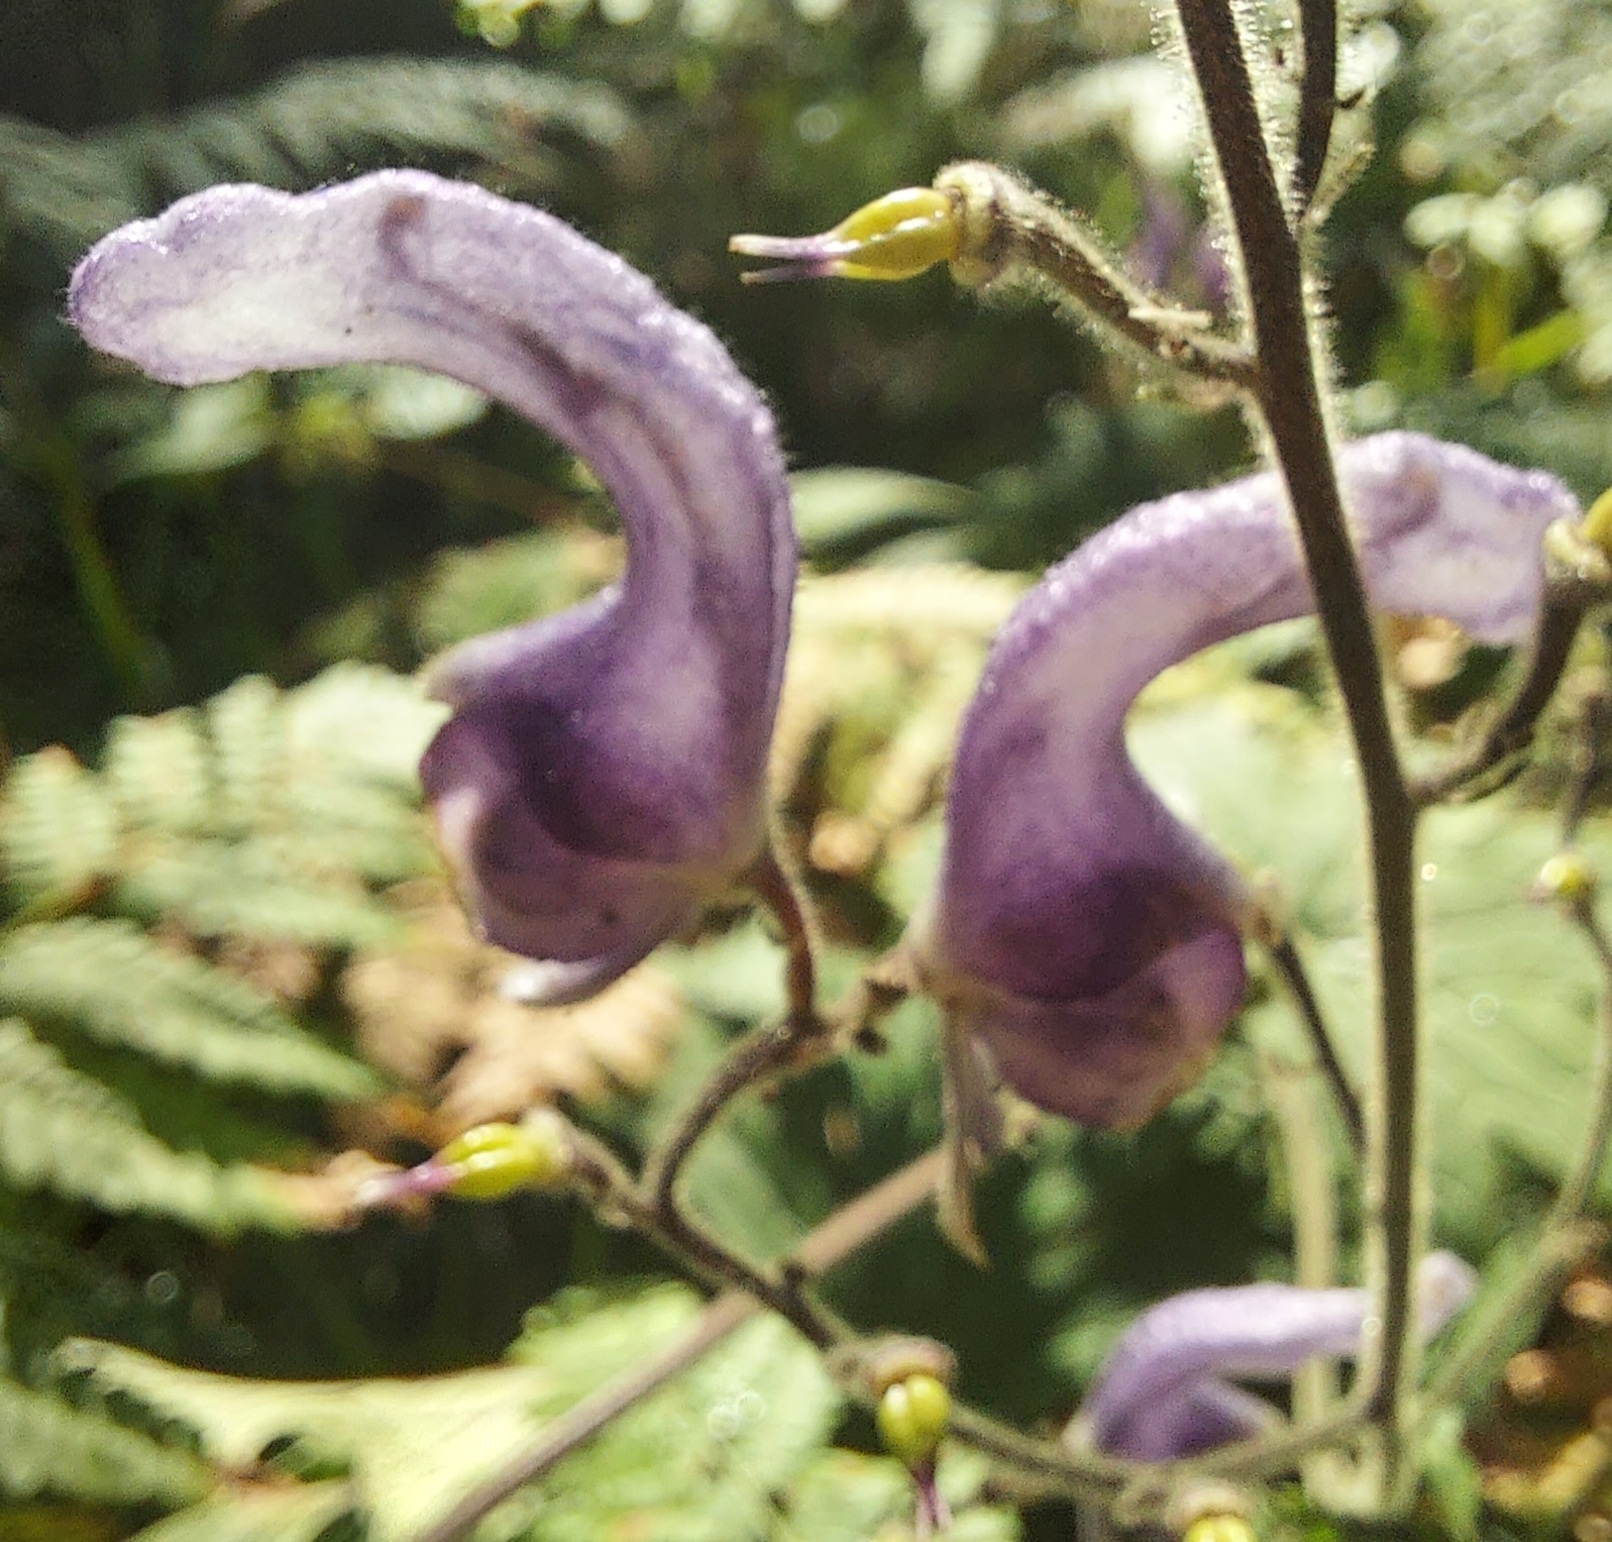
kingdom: Plantae
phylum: Tracheophyta
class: Magnoliopsida
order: Ranunculales
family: Ranunculaceae
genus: Aconitum
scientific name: Aconitum septentrionale
